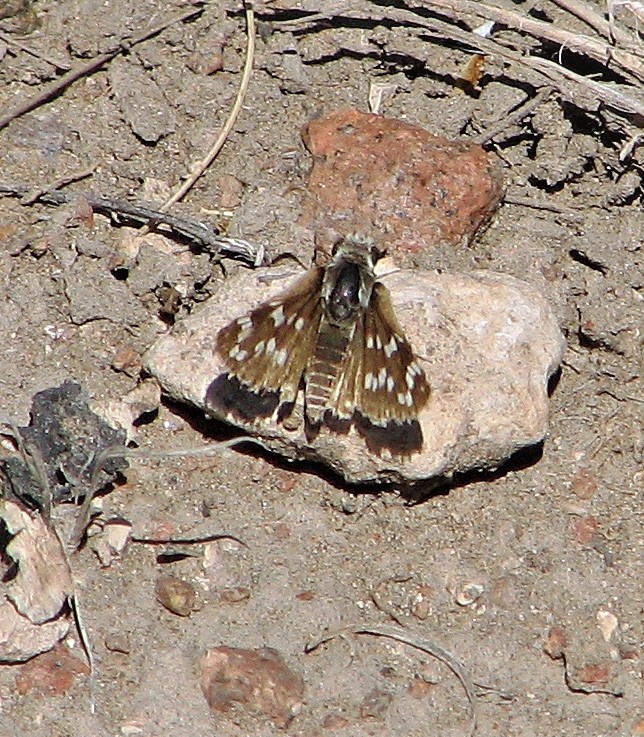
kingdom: Animalia
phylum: Arthropoda
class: Insecta
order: Lepidoptera
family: Hesperiidae
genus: Chirgus
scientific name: Chirgus fides
